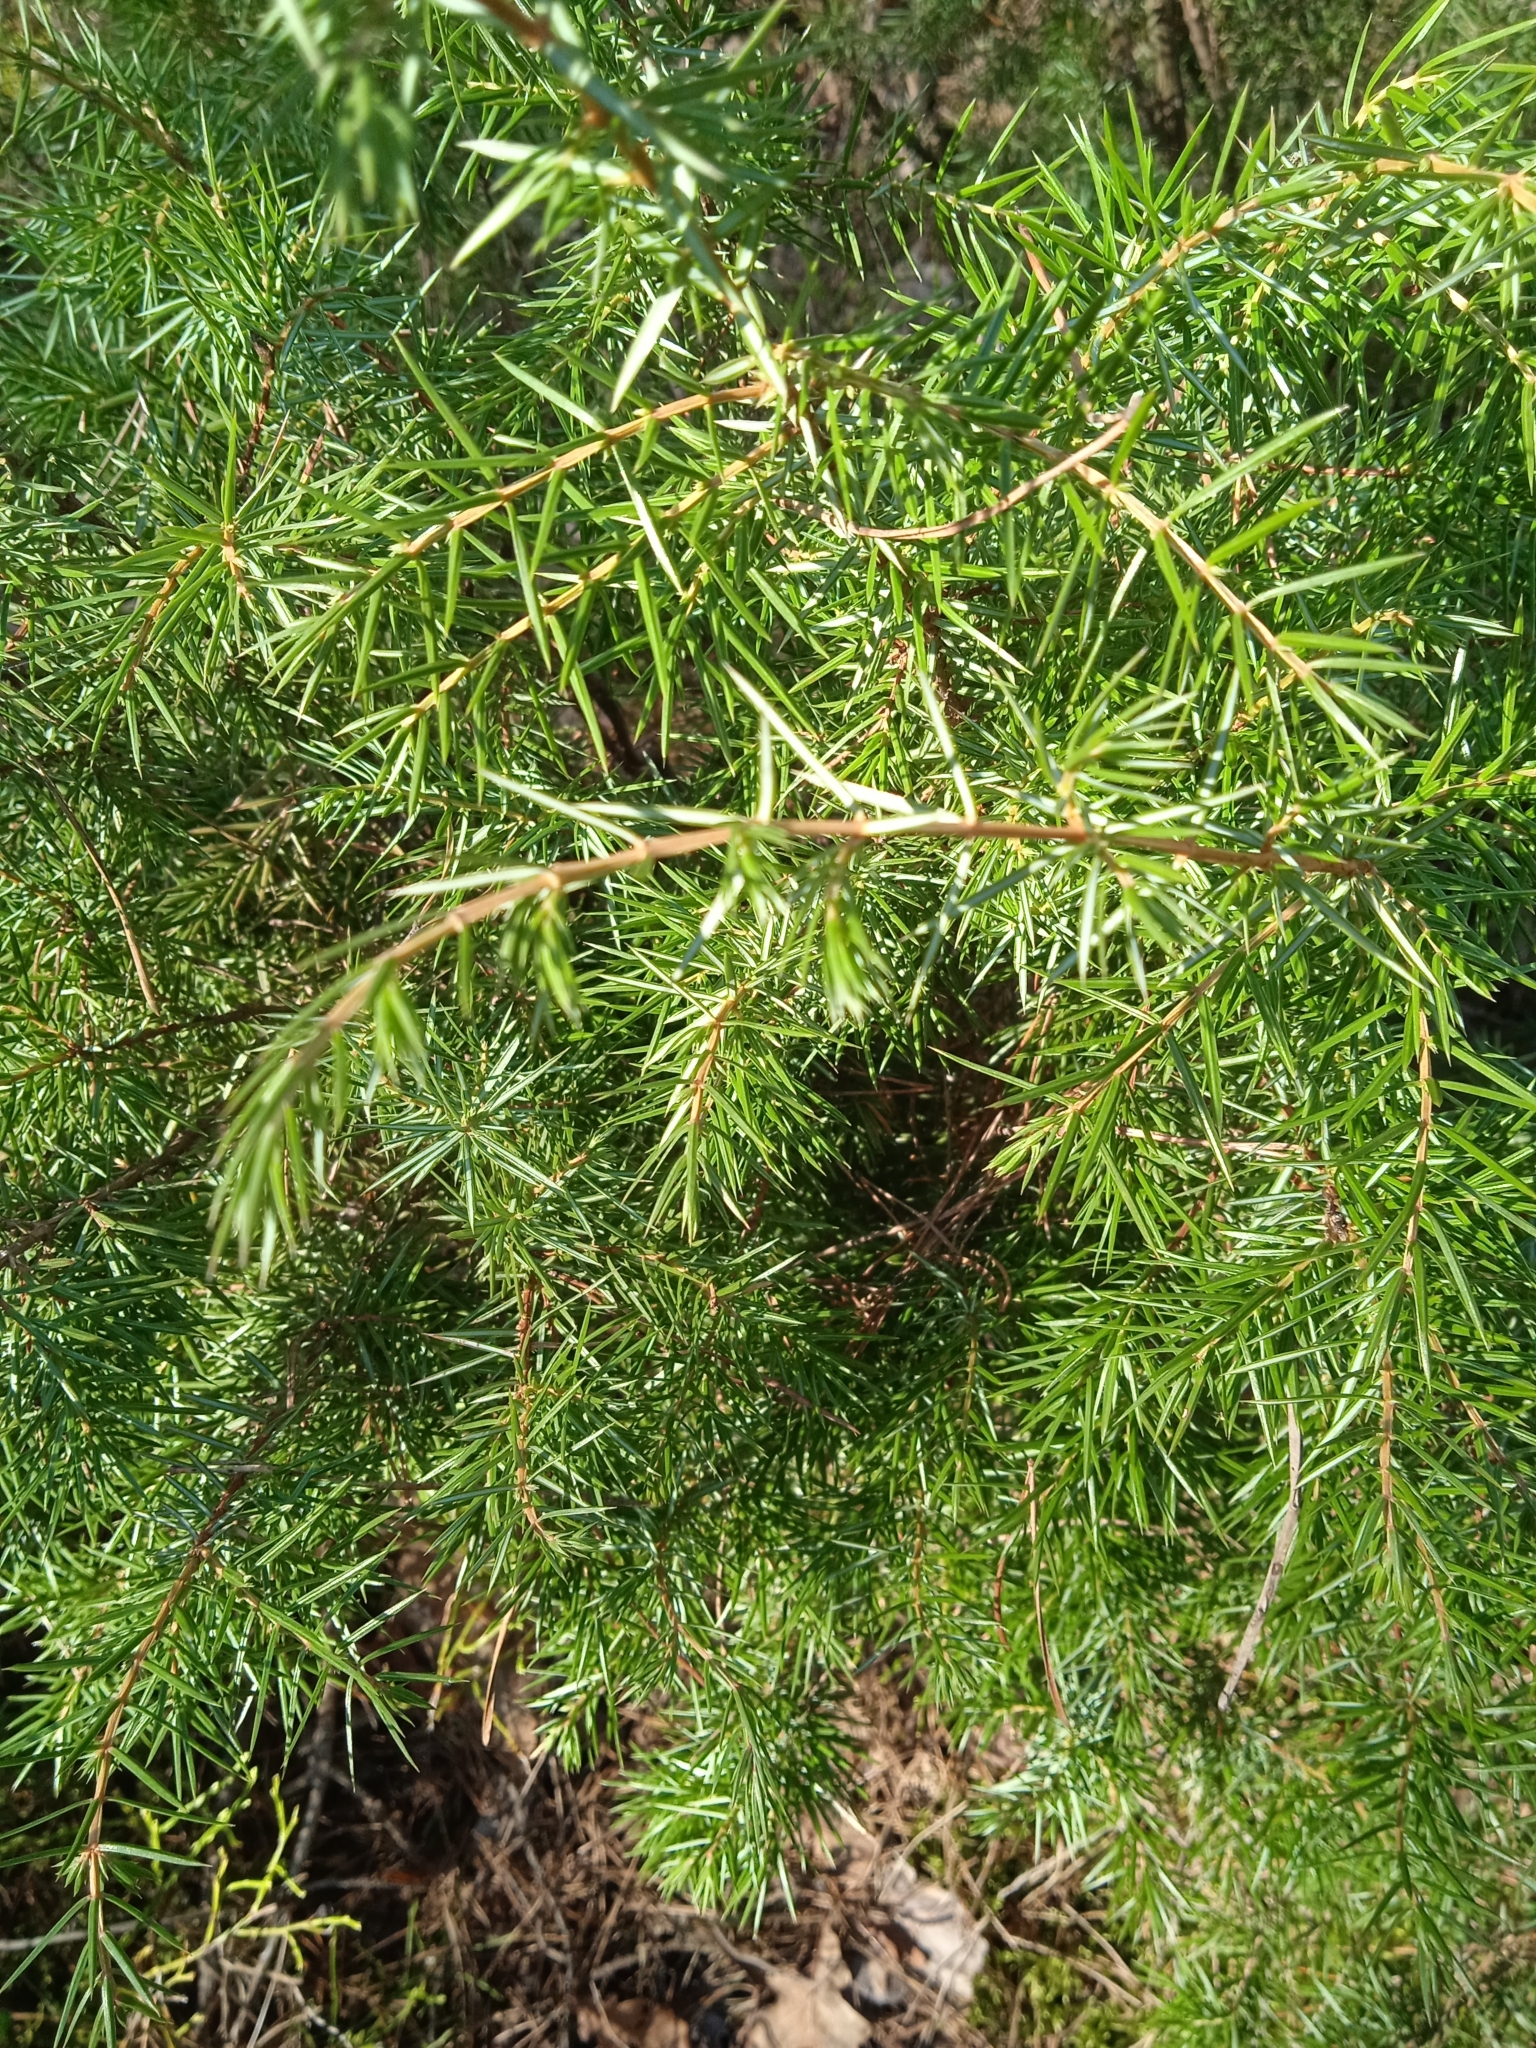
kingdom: Plantae
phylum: Tracheophyta
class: Pinopsida
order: Pinales
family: Cupressaceae
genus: Juniperus
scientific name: Juniperus communis
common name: Common juniper
